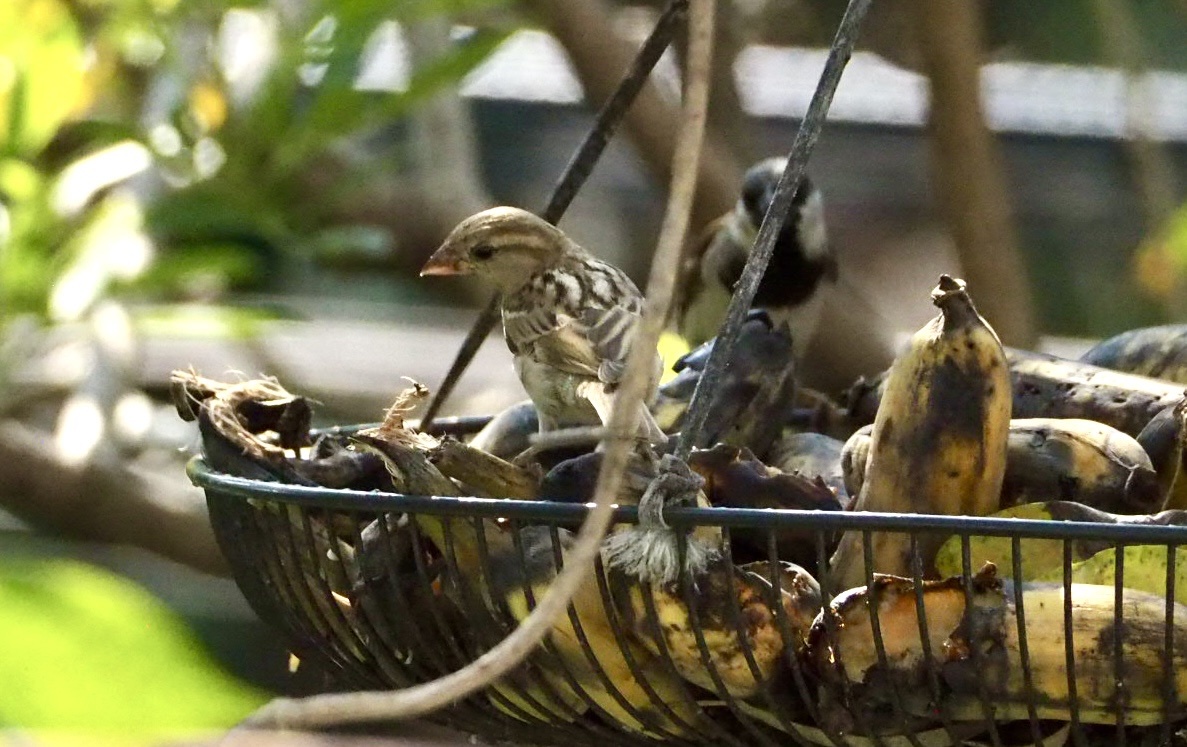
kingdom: Animalia
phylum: Chordata
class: Aves
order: Passeriformes
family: Passeridae
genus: Passer
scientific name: Passer domesticus
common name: House sparrow
